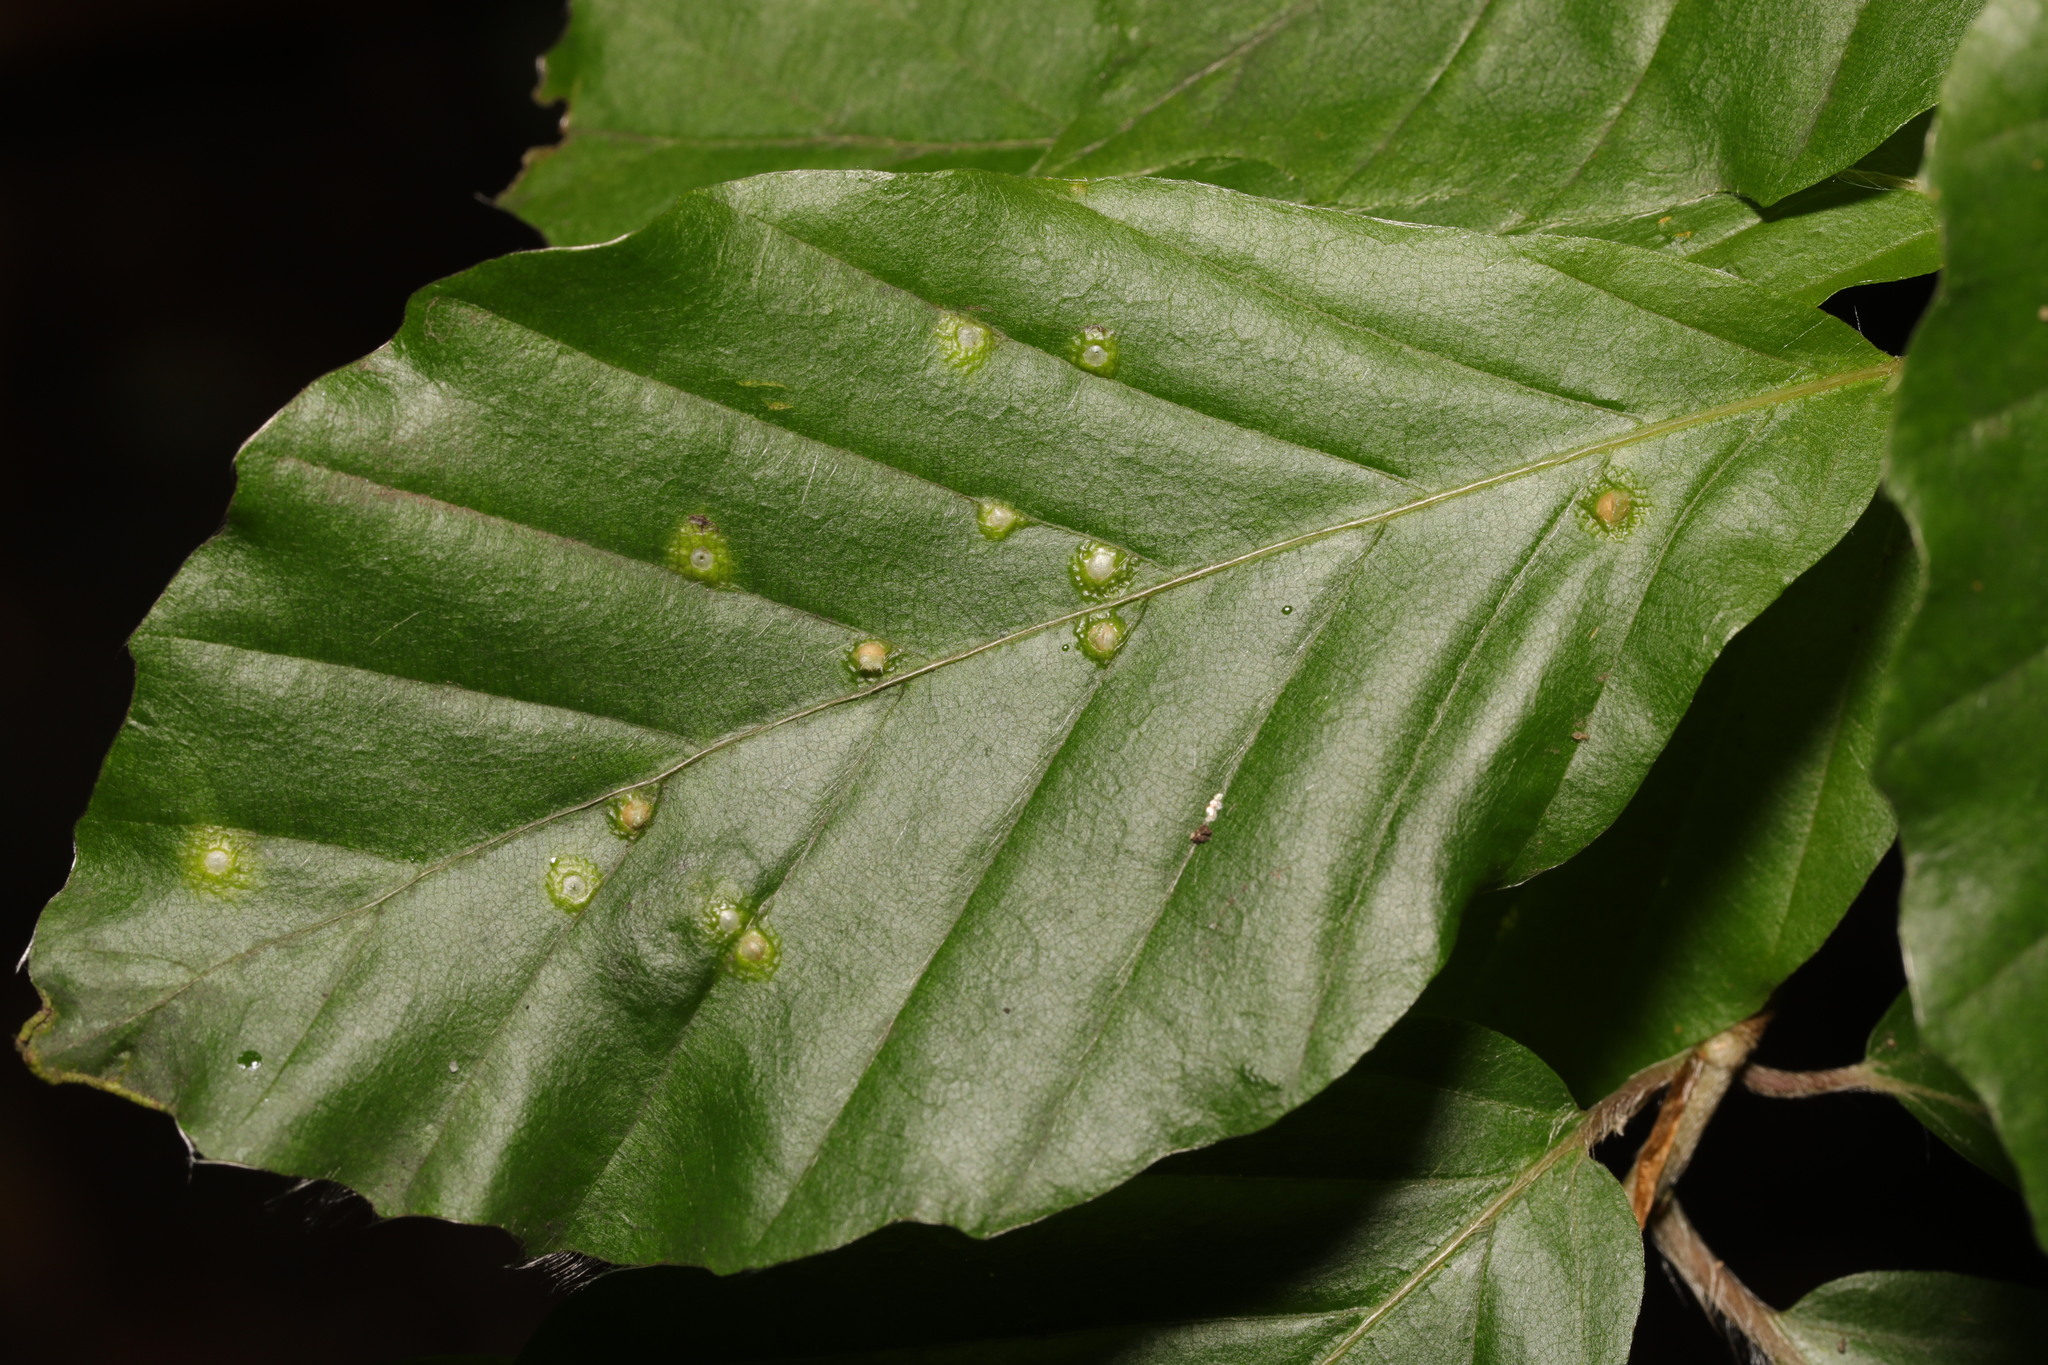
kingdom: Animalia
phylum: Arthropoda
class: Insecta
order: Diptera
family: Cecidomyiidae
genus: Hartigiola
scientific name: Hartigiola annulipes
